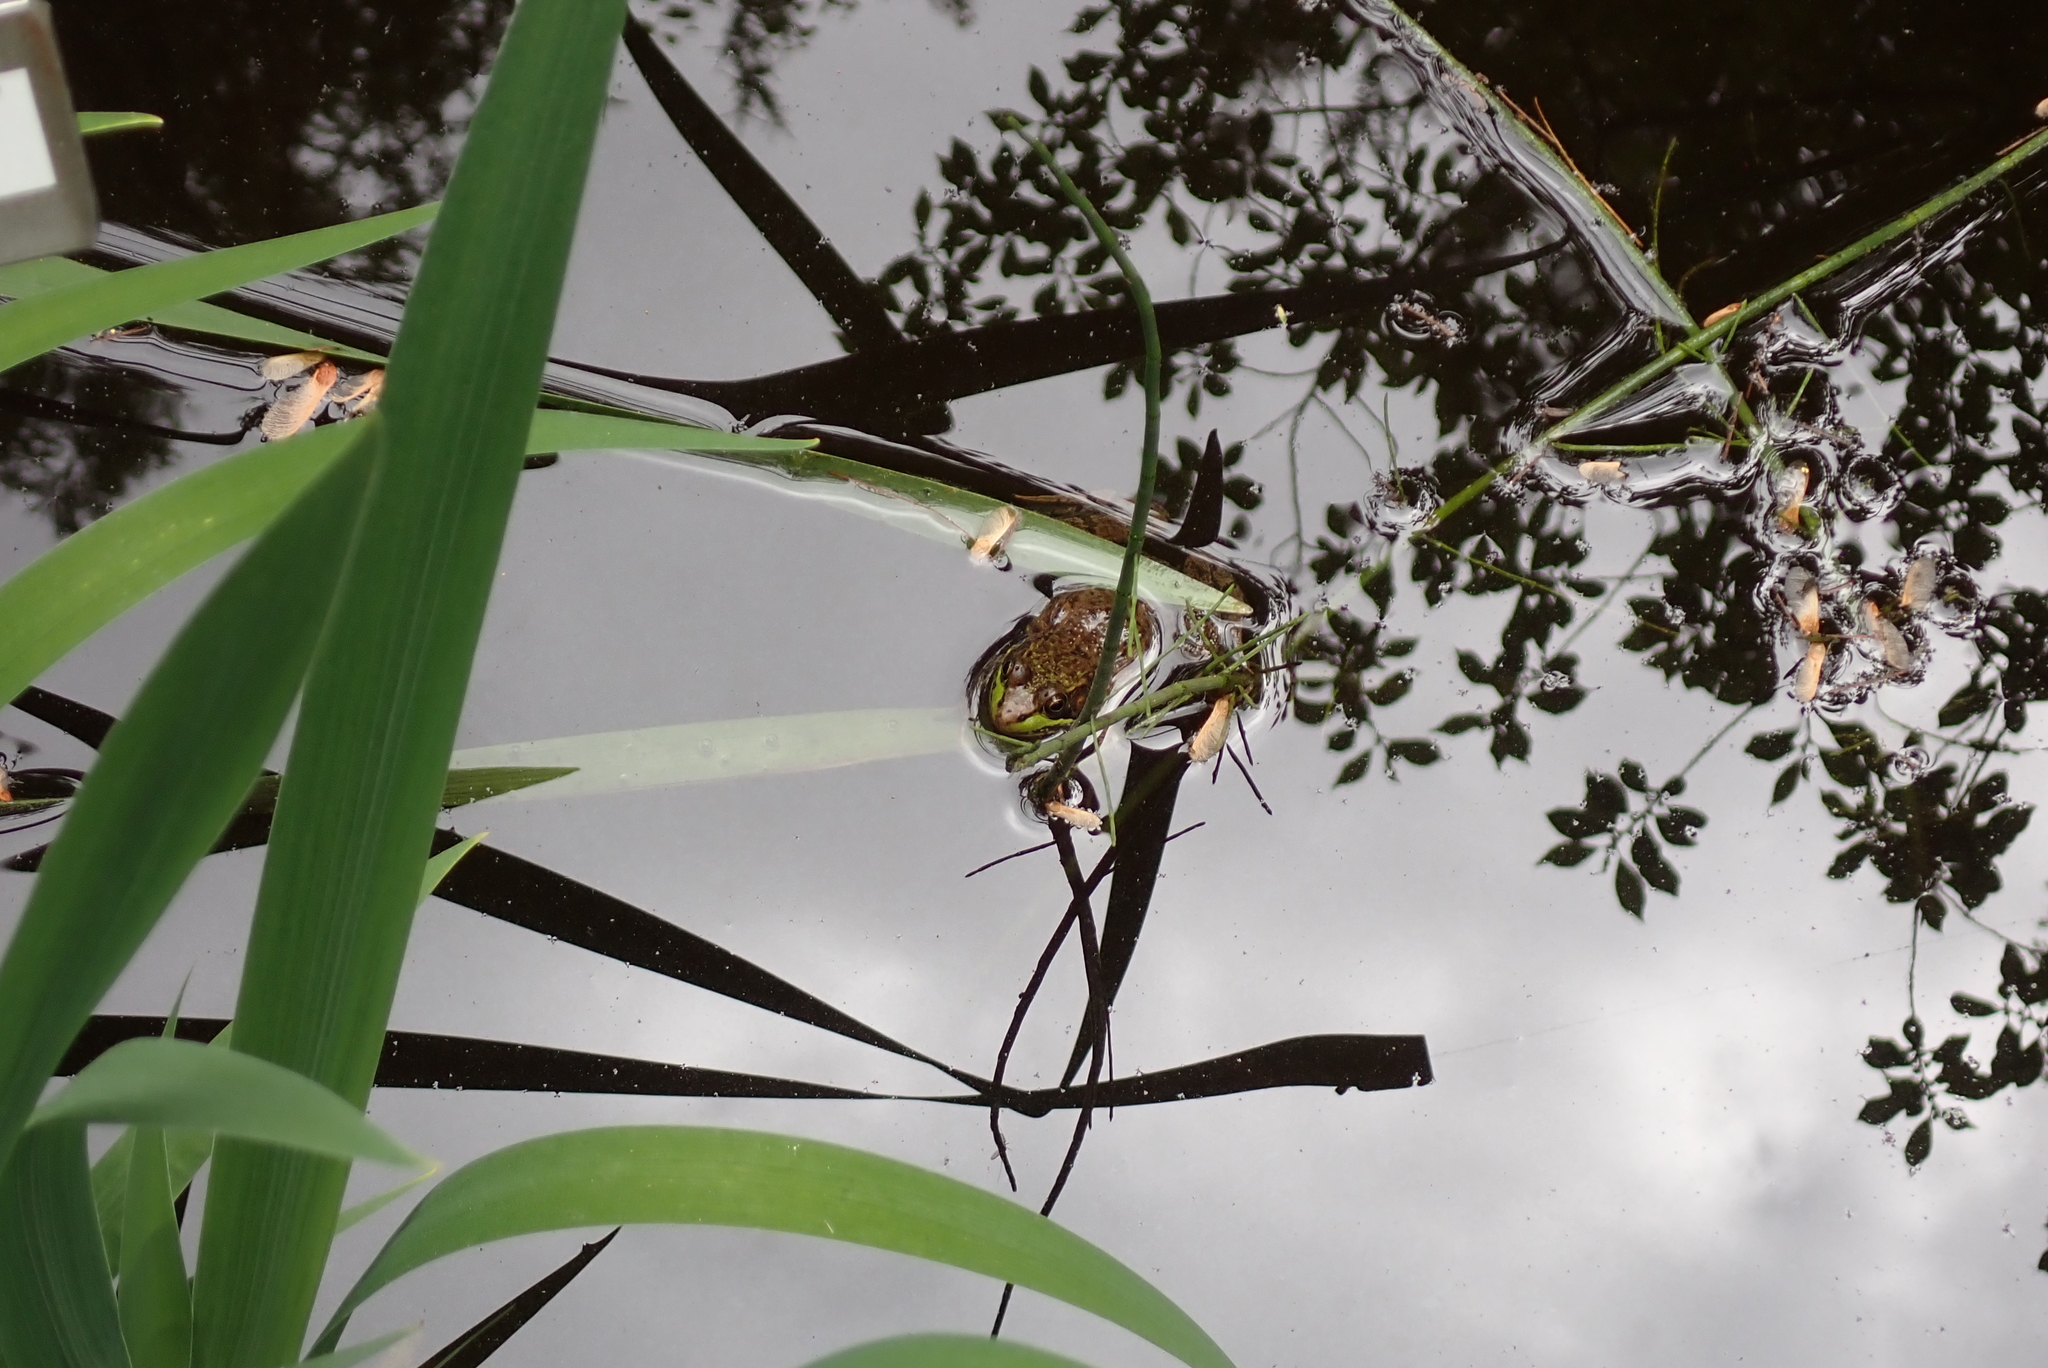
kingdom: Animalia
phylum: Chordata
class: Amphibia
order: Anura
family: Ranidae
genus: Lithobates
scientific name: Lithobates clamitans
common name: Green frog
